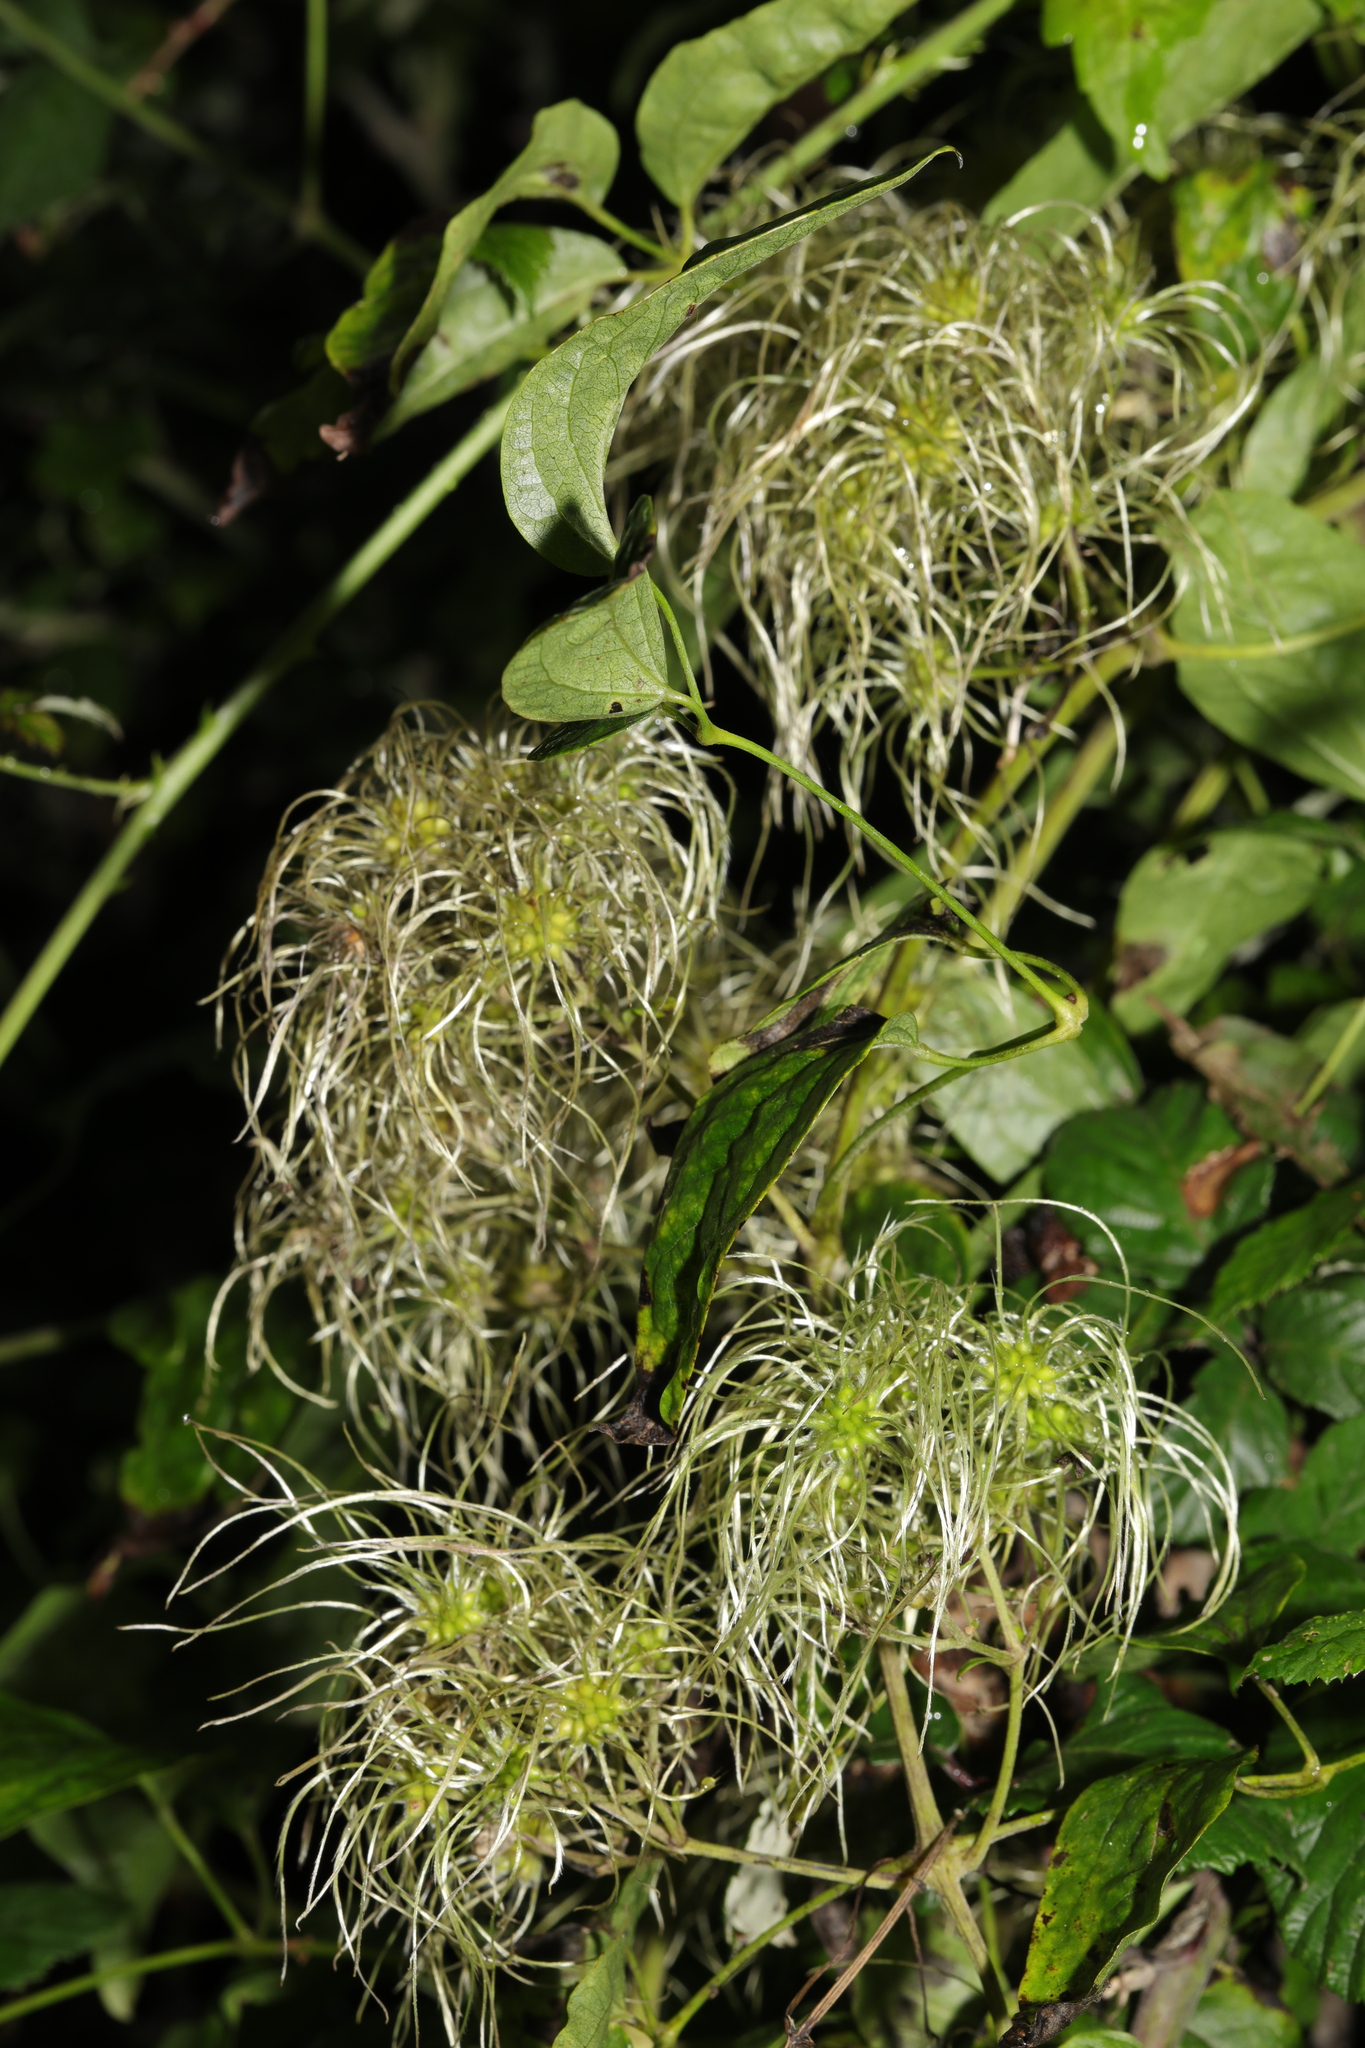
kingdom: Plantae
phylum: Tracheophyta
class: Magnoliopsida
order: Ranunculales
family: Ranunculaceae
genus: Clematis
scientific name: Clematis vitalba
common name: Evergreen clematis
